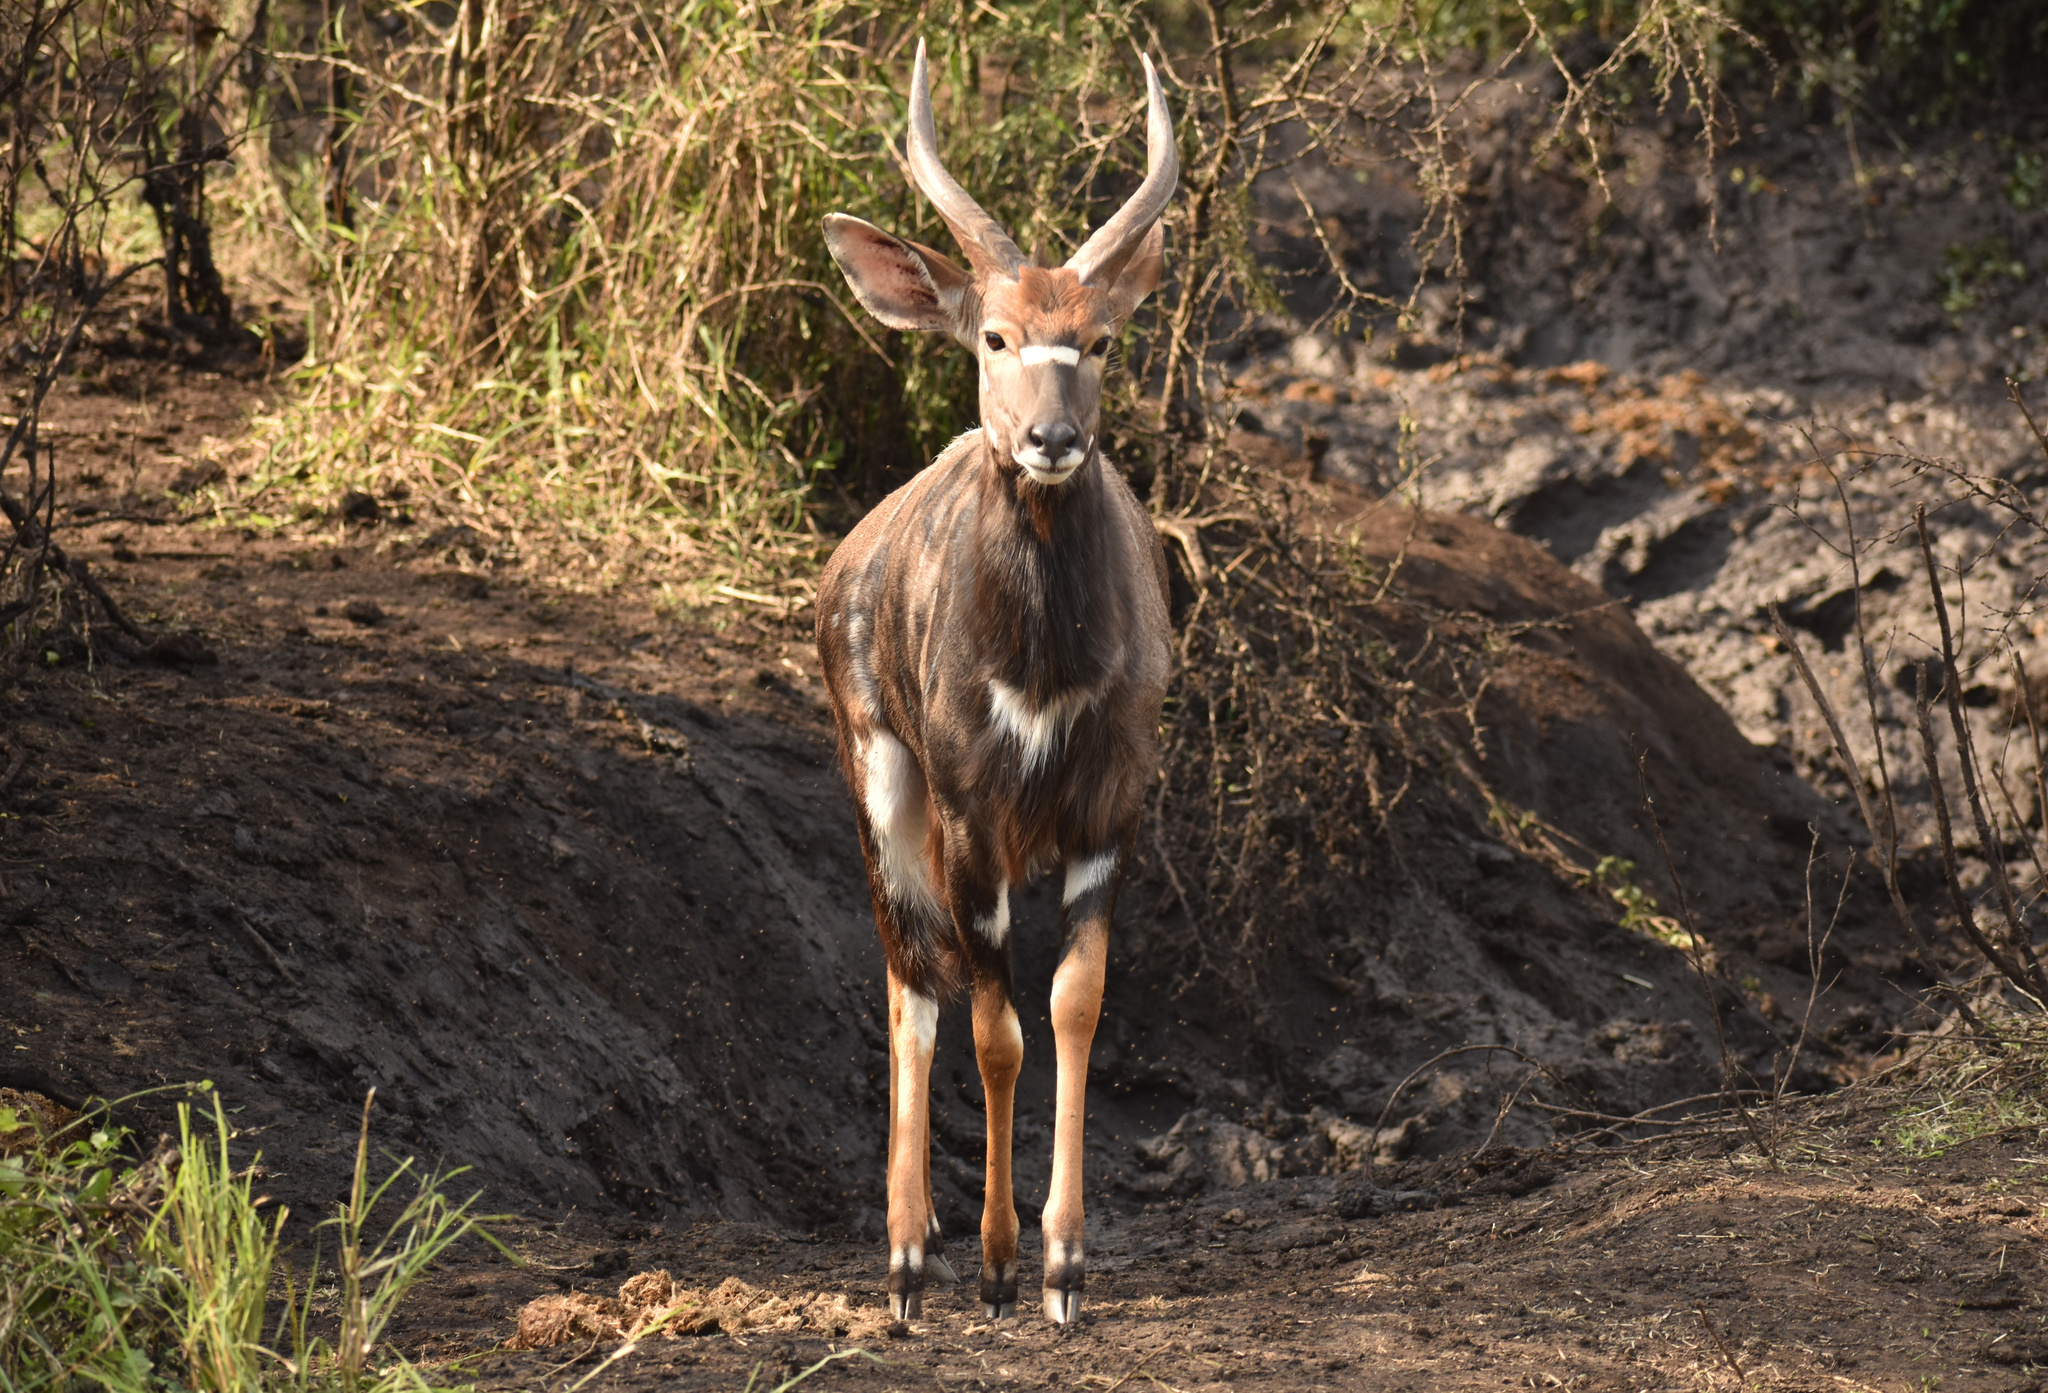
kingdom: Animalia
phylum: Chordata
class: Mammalia
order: Artiodactyla
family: Bovidae
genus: Tragelaphus
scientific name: Tragelaphus angasii
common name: Nyala
